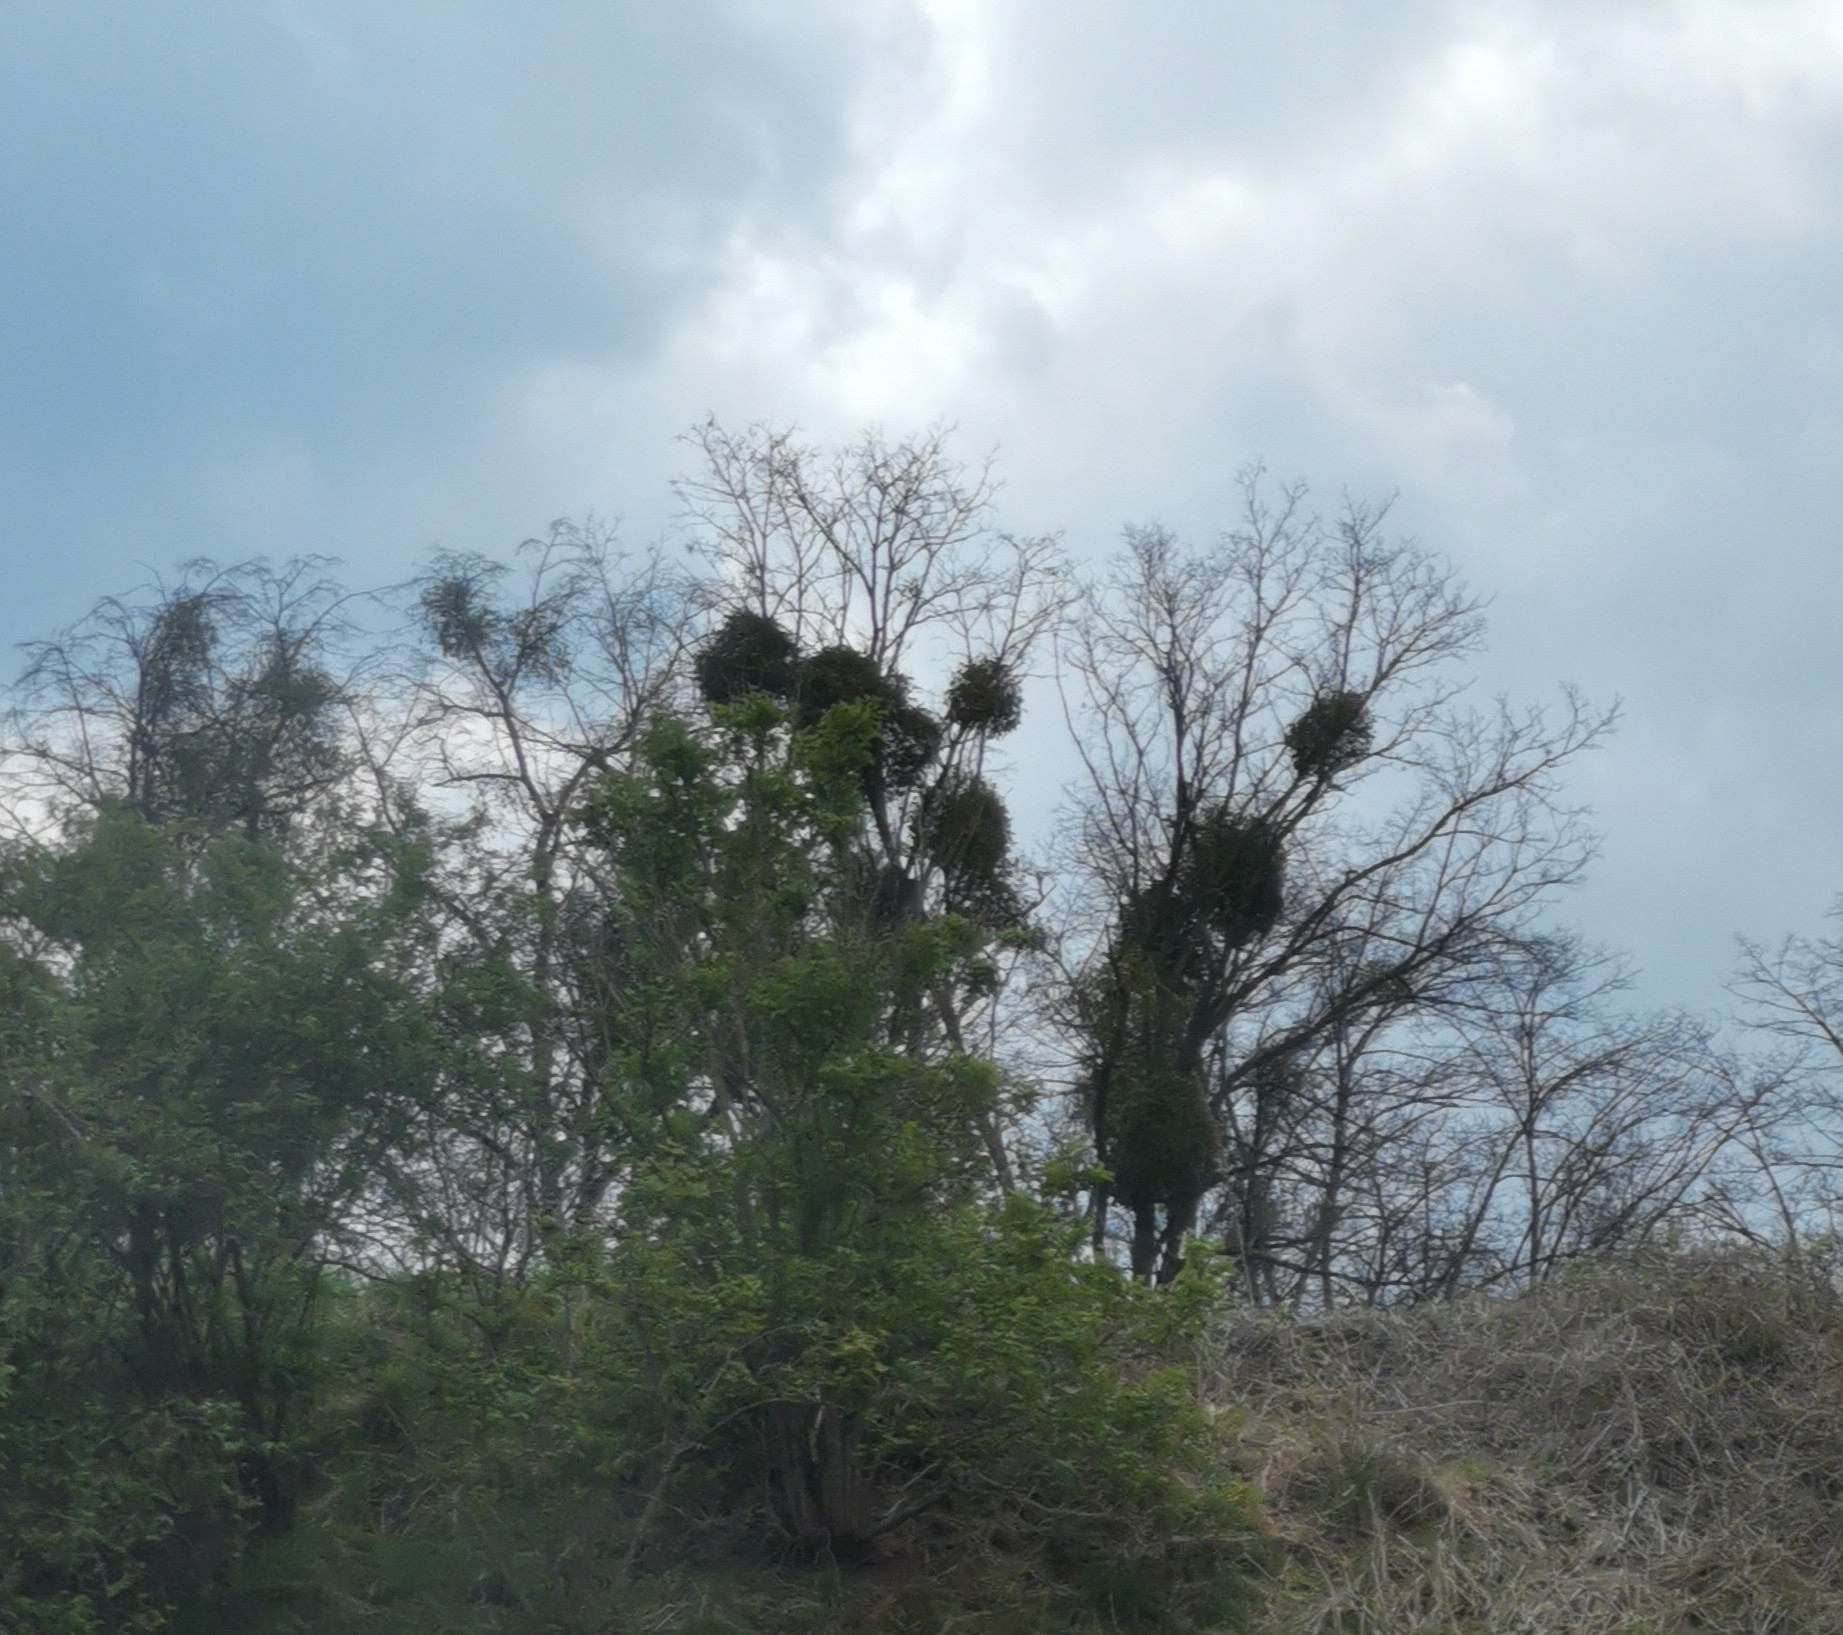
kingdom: Plantae
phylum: Tracheophyta
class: Magnoliopsida
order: Santalales
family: Viscaceae
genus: Viscum
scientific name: Viscum album
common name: Mistletoe
